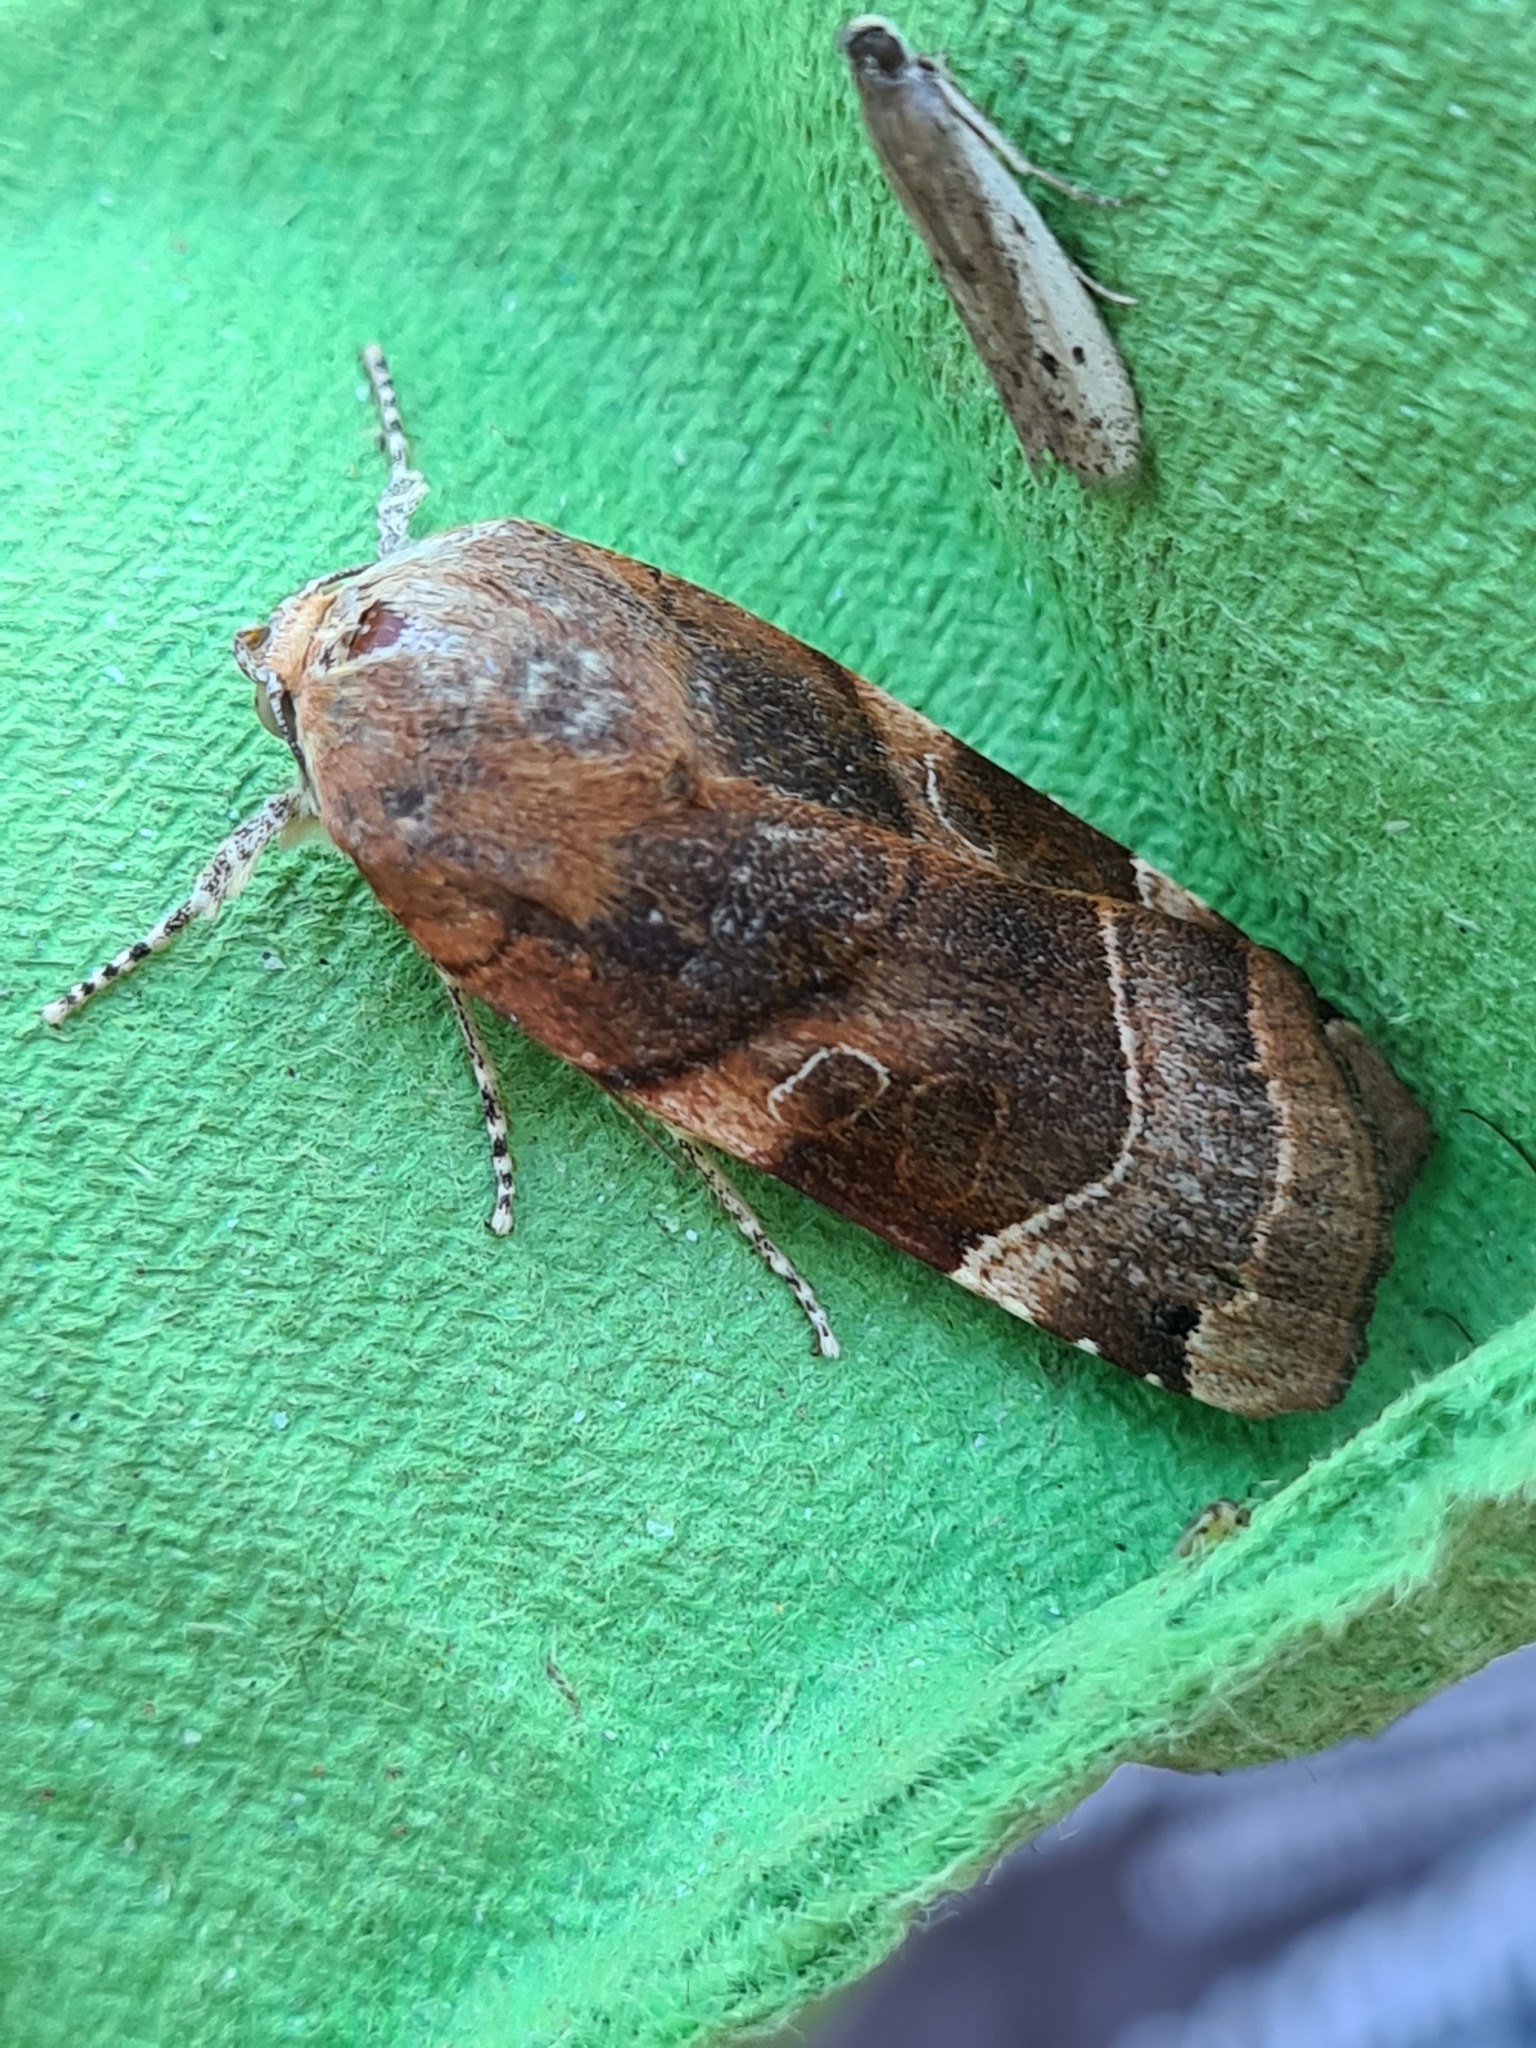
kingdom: Animalia
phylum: Arthropoda
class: Insecta
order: Lepidoptera
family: Noctuidae
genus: Noctua
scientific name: Noctua fimbriata
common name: Broad-bordered yellow underwing
